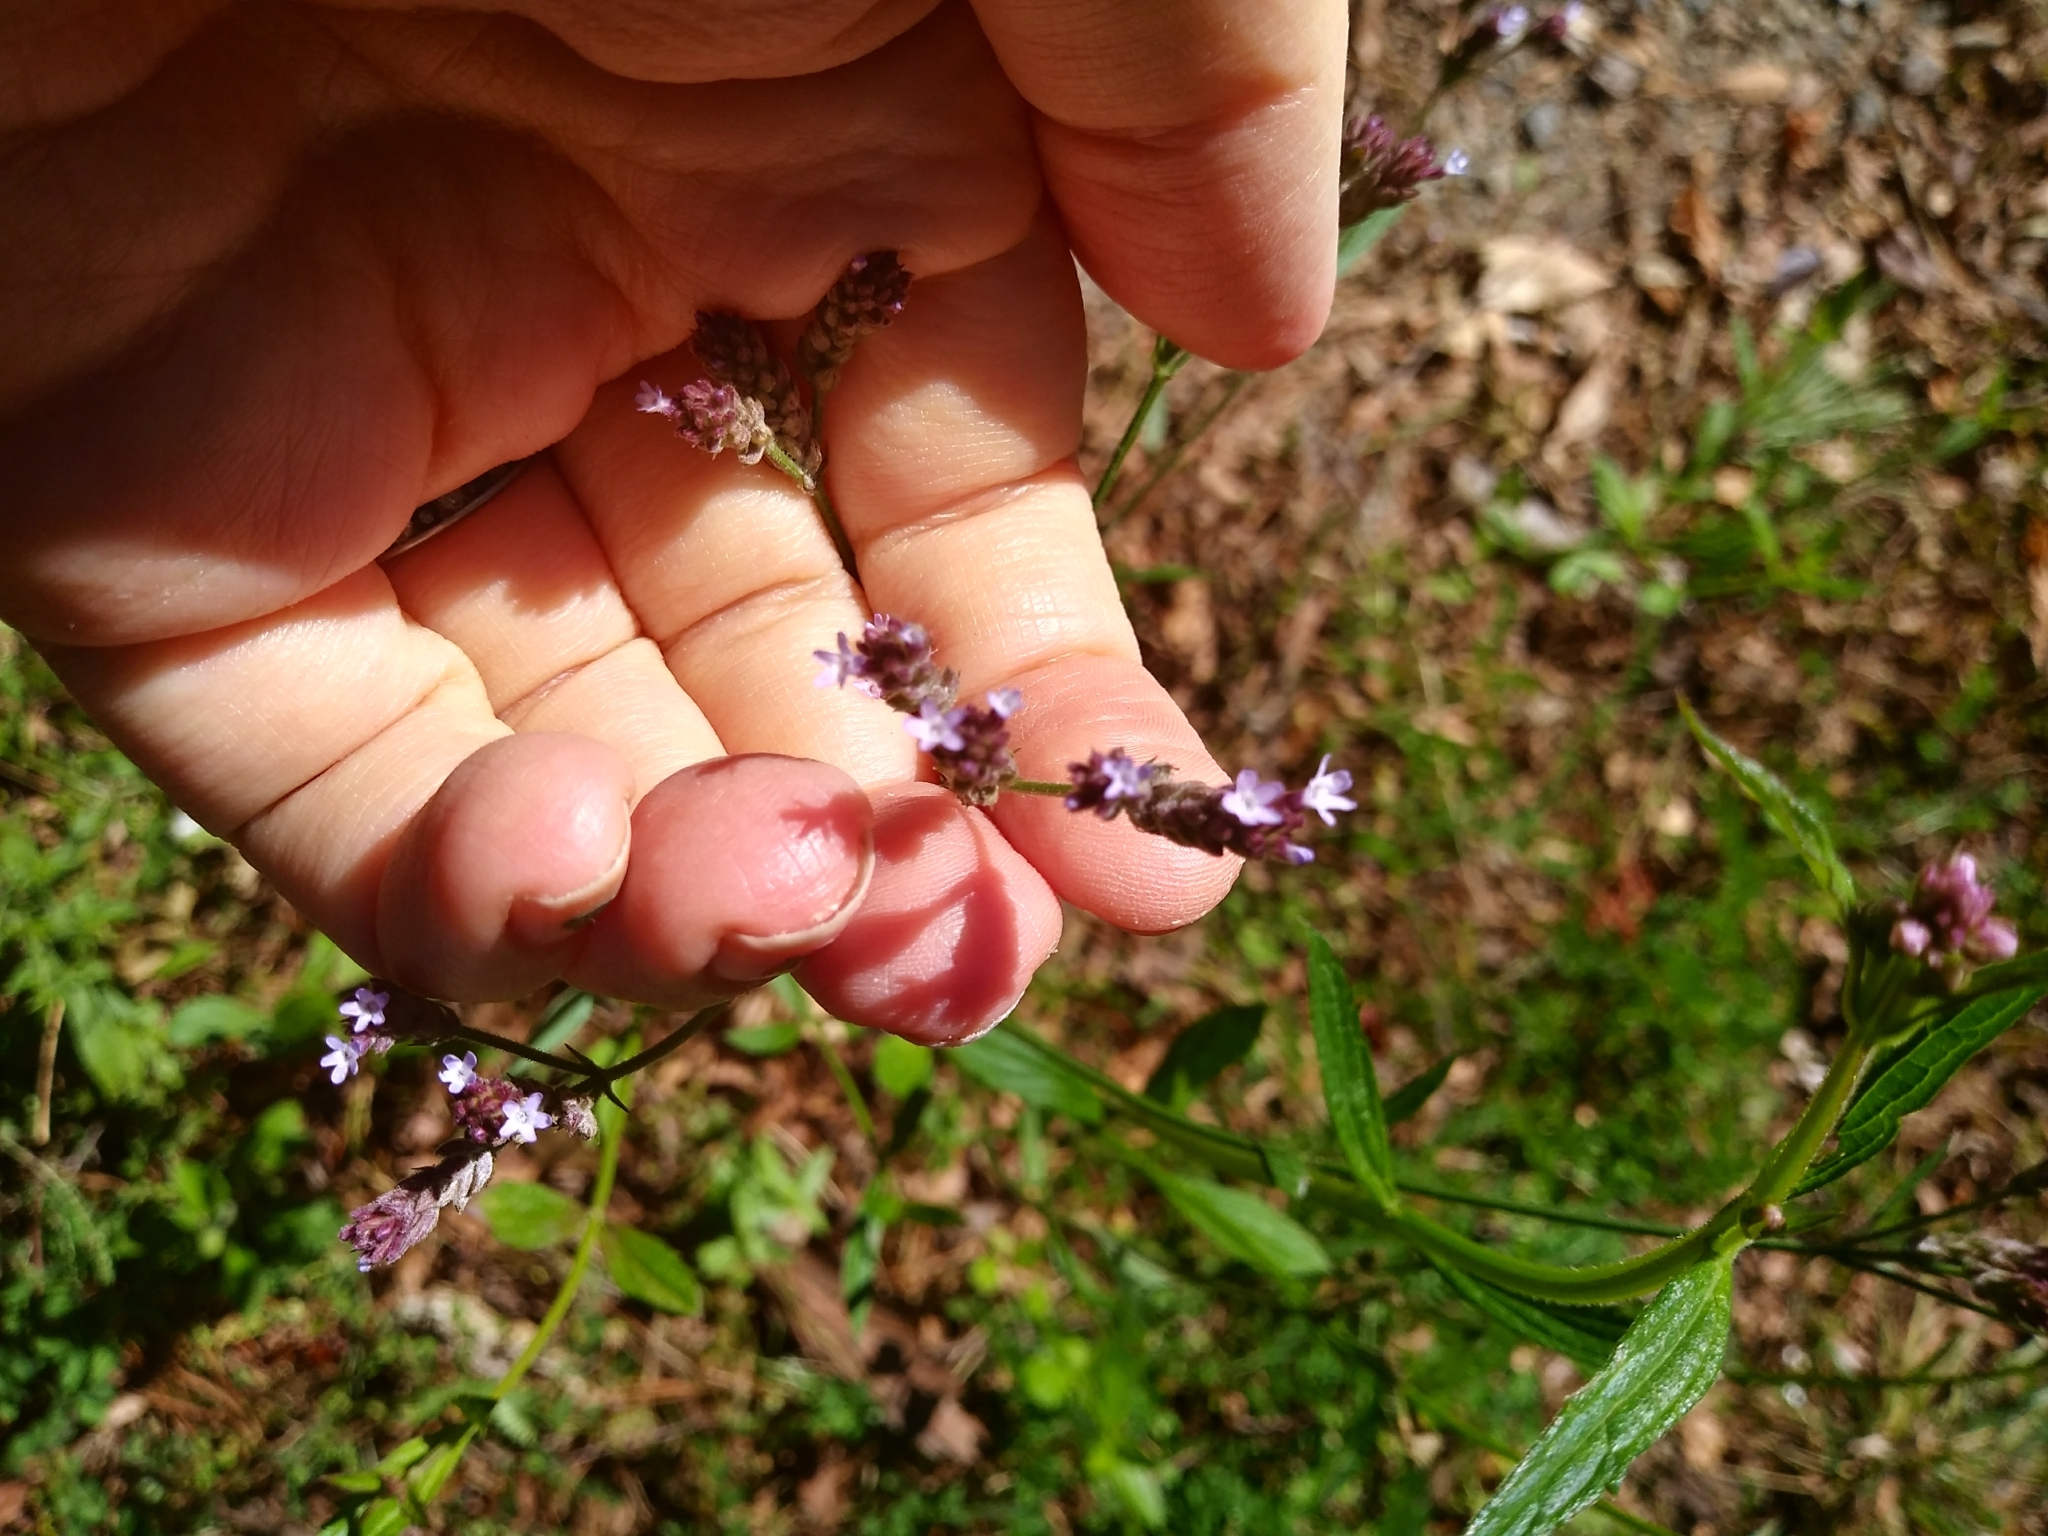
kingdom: Plantae
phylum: Tracheophyta
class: Magnoliopsida
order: Lamiales
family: Verbenaceae
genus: Verbena
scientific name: Verbena brasiliensis
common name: Brazilian vervain
